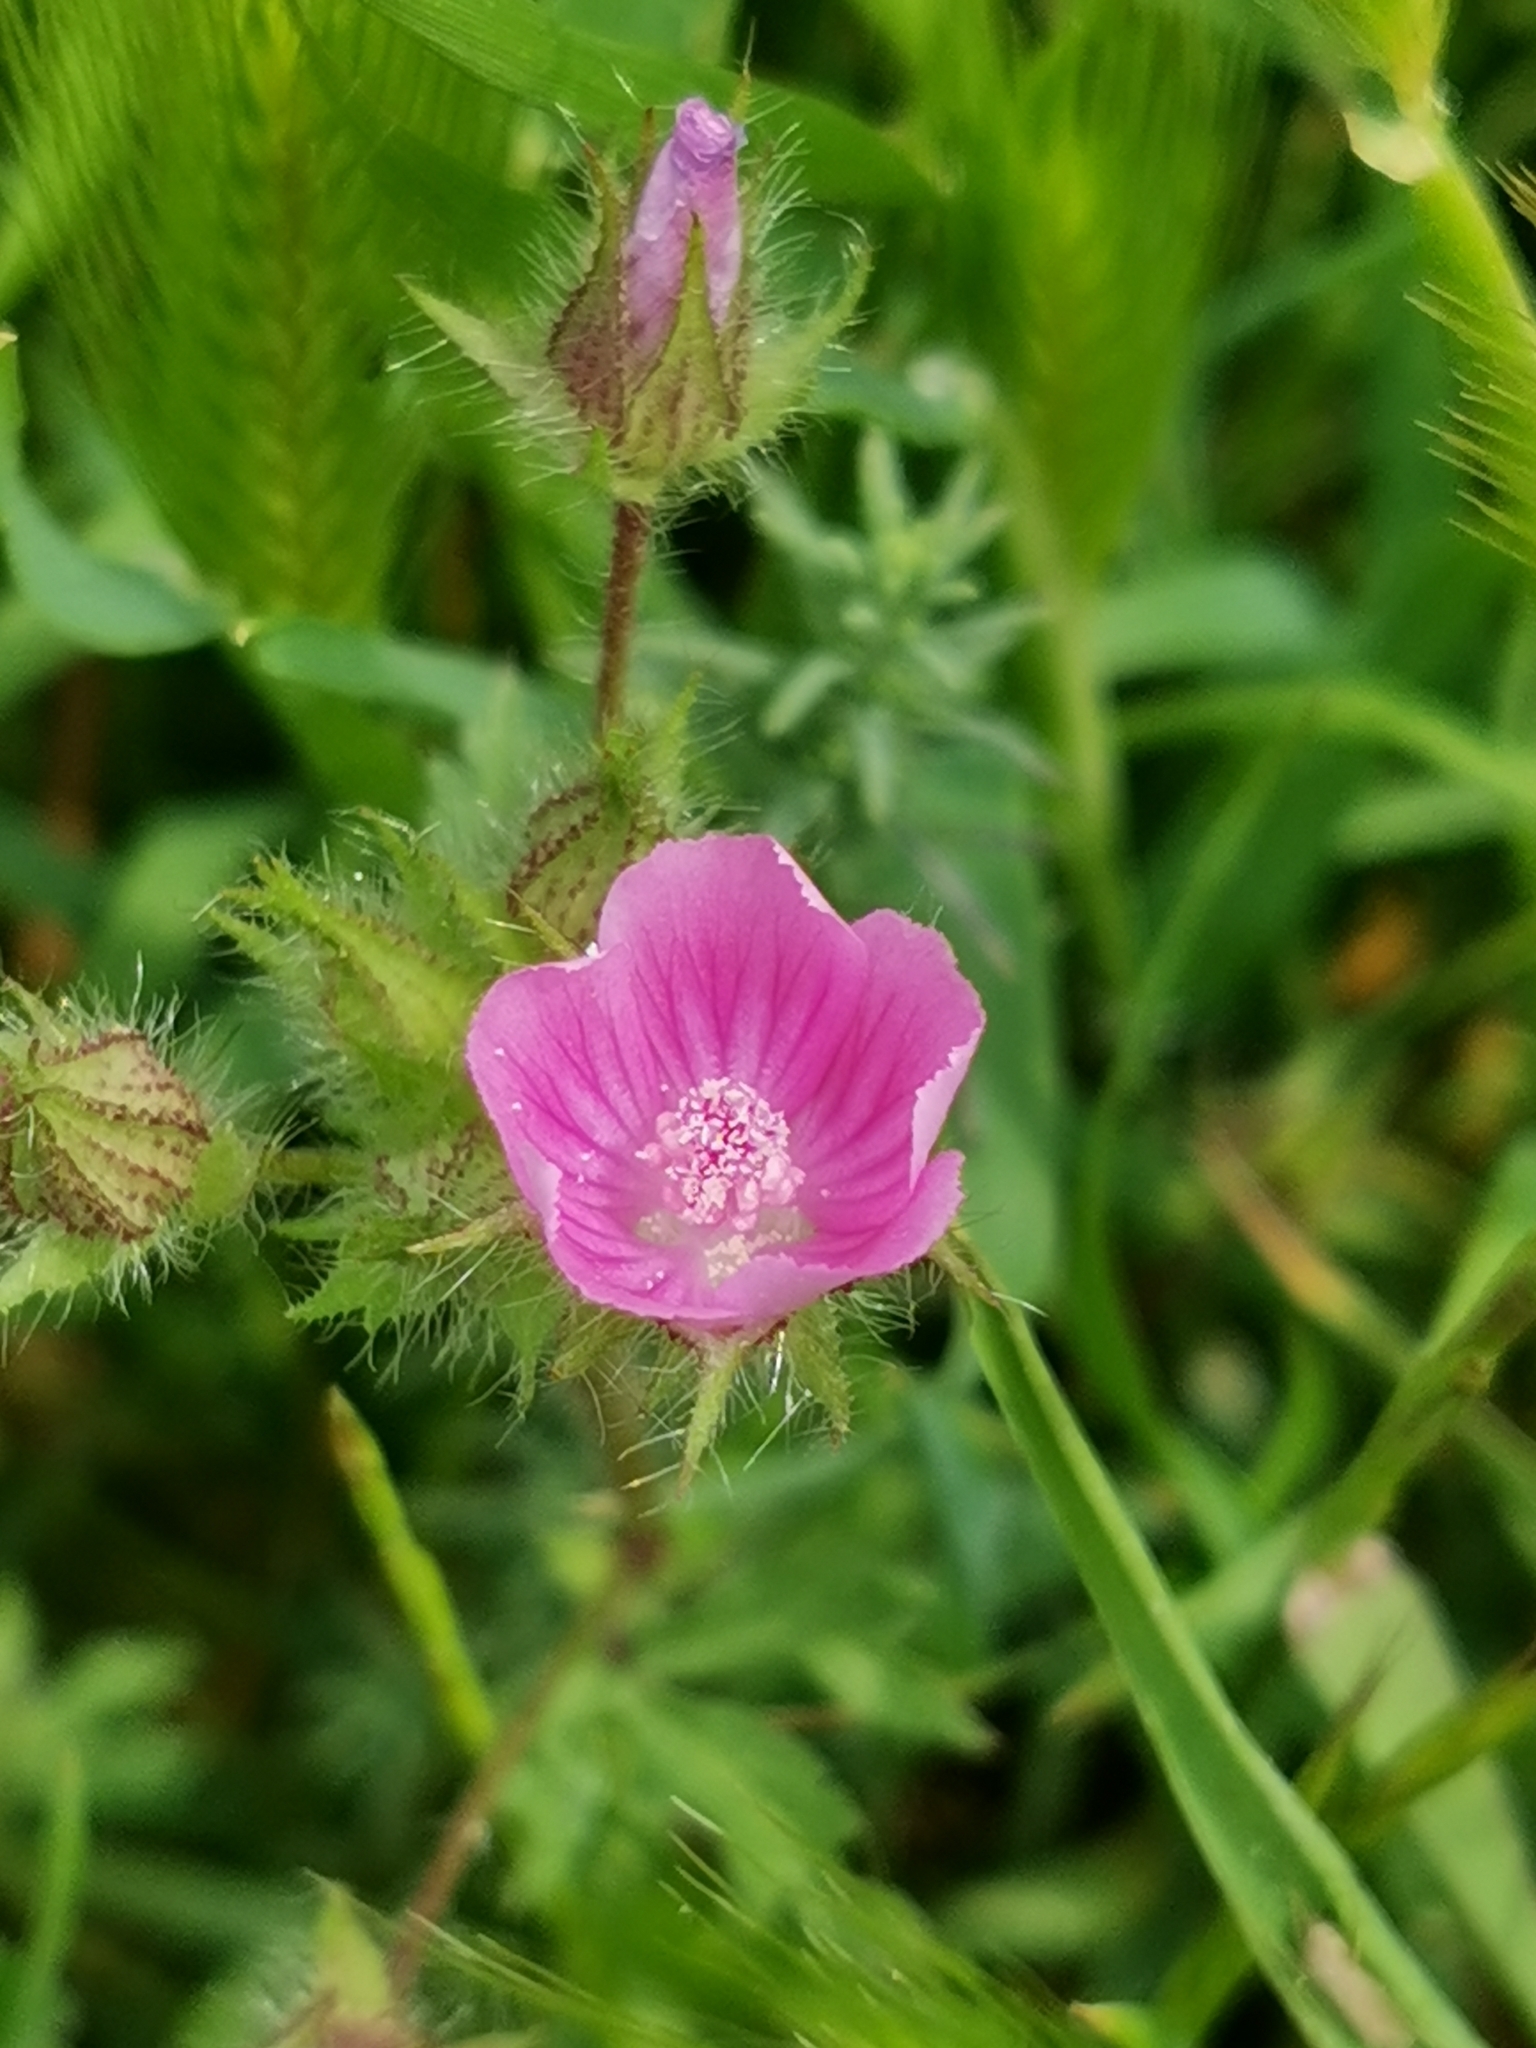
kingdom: Plantae
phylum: Tracheophyta
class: Magnoliopsida
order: Malvales
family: Malvaceae
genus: Malvalthaea
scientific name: Malvalthaea transcaucasica
